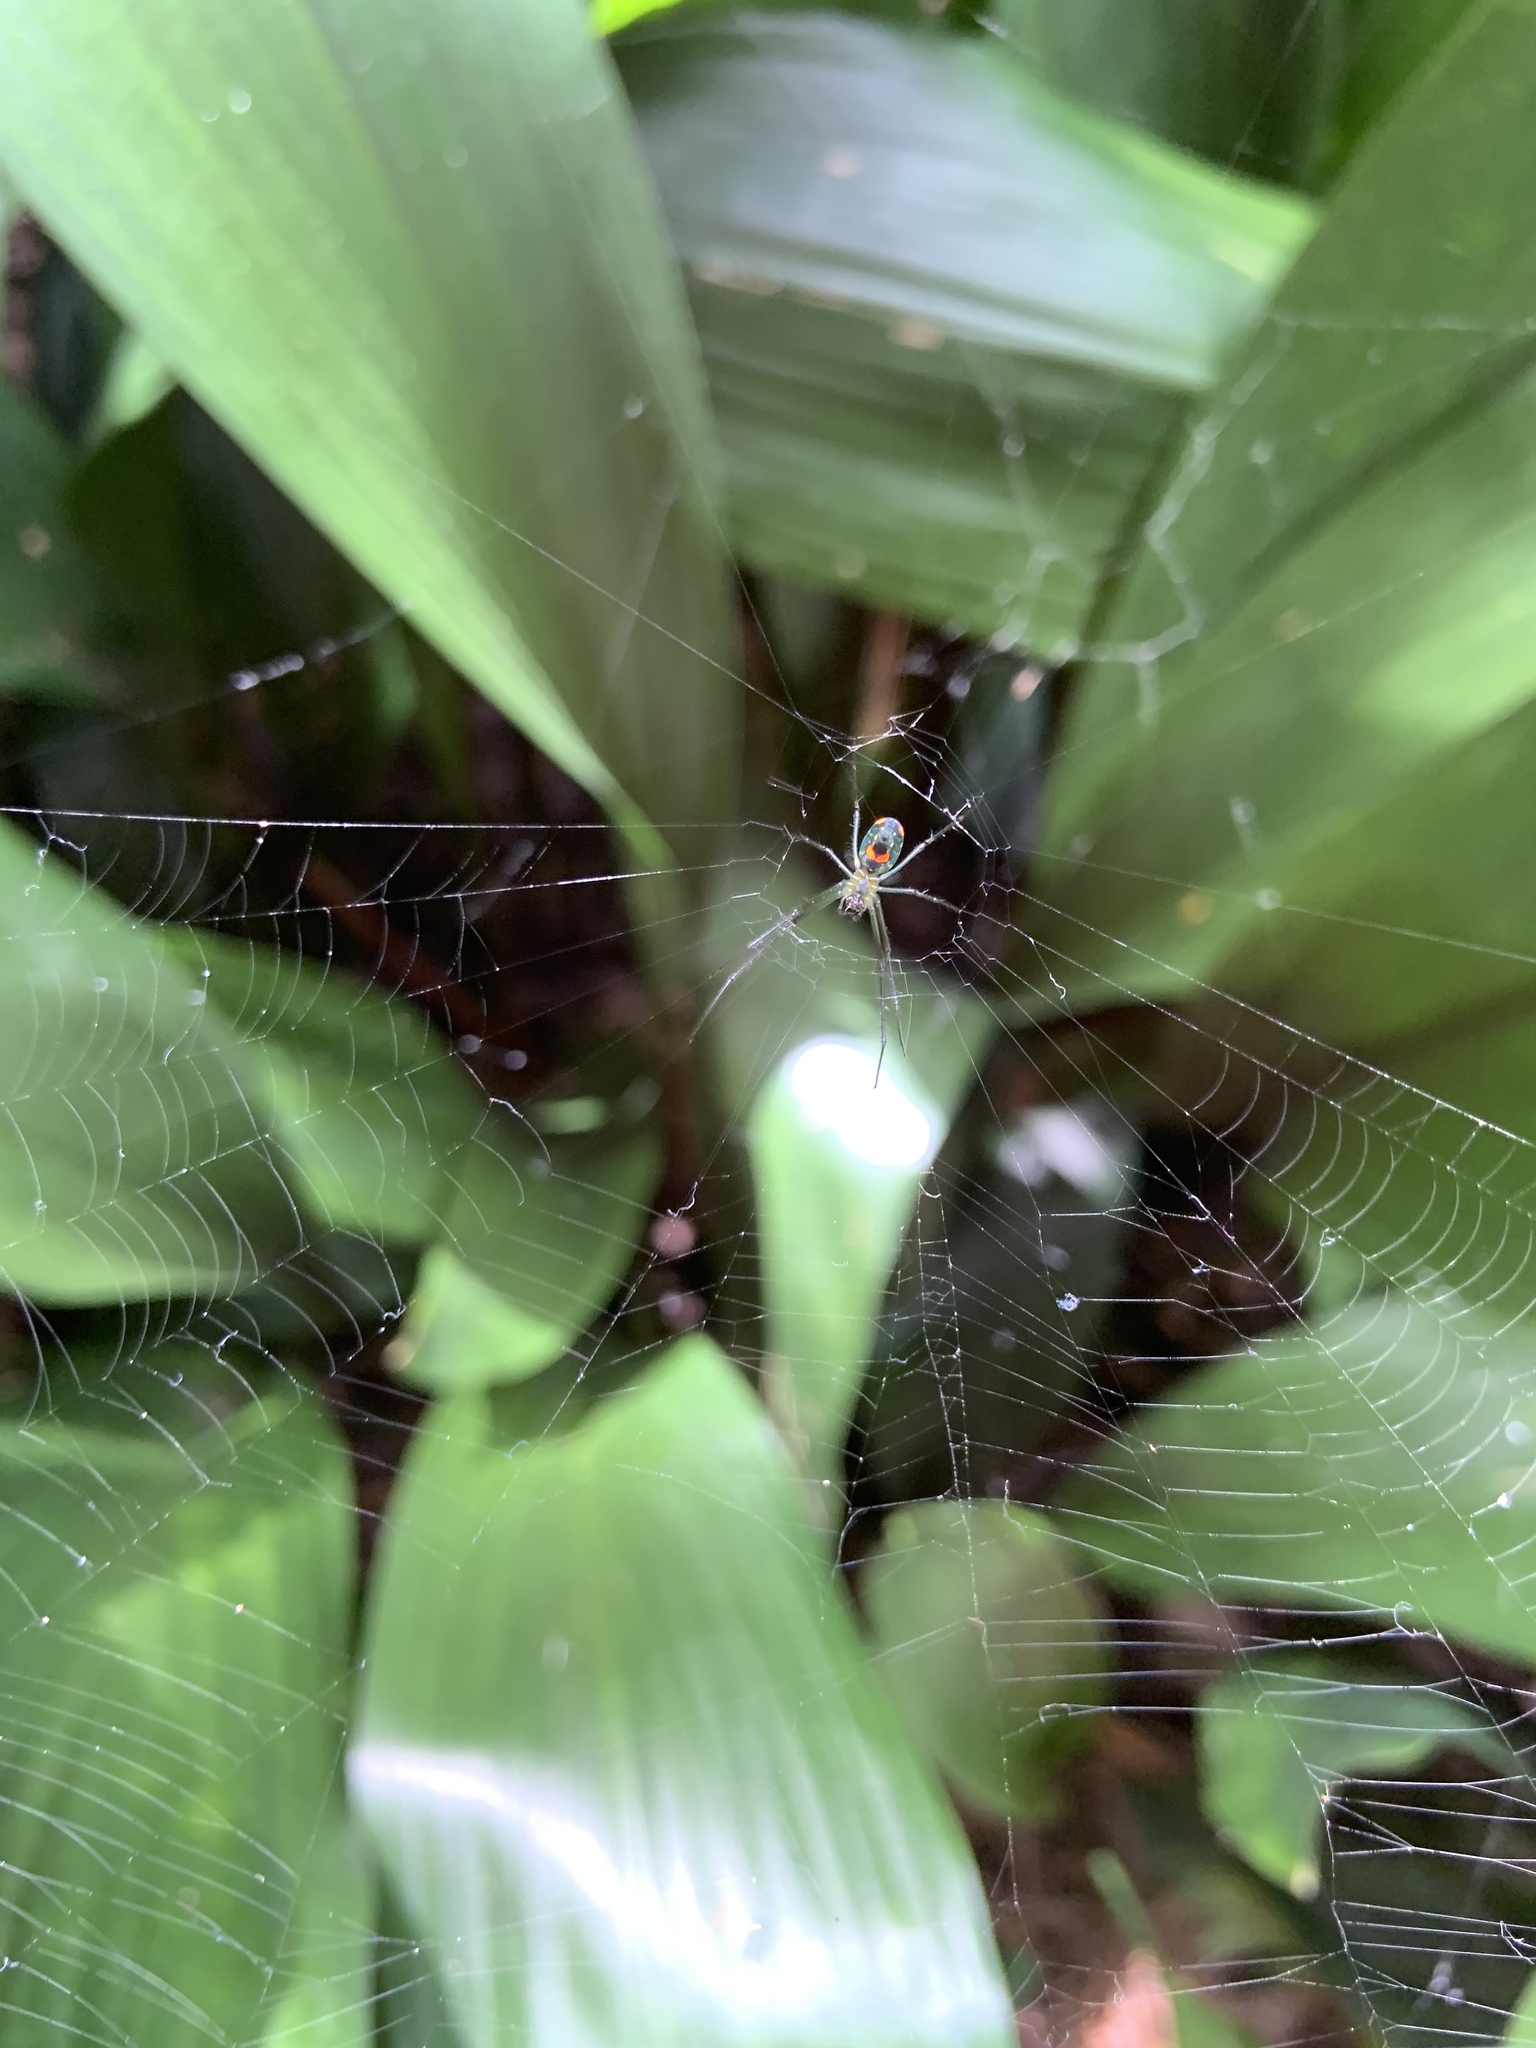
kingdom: Animalia
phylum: Arthropoda
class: Arachnida
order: Araneae
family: Tetragnathidae
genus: Leucauge
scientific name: Leucauge argyrobapta
